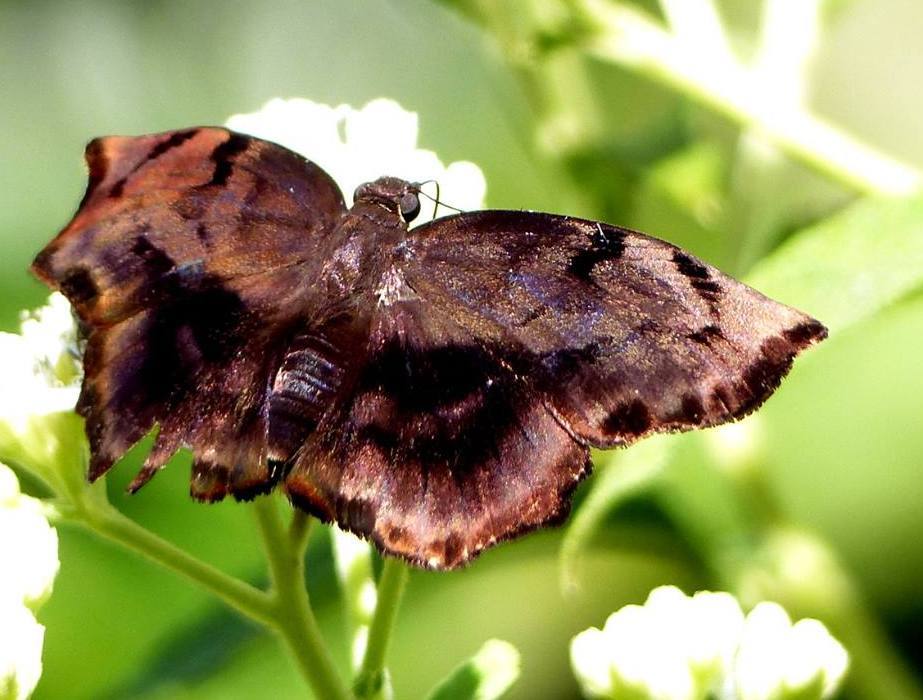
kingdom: Animalia
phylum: Arthropoda
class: Insecta
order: Lepidoptera
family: Hesperiidae
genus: Achlyodes
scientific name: Achlyodes busirus
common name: Giant sicklewing
